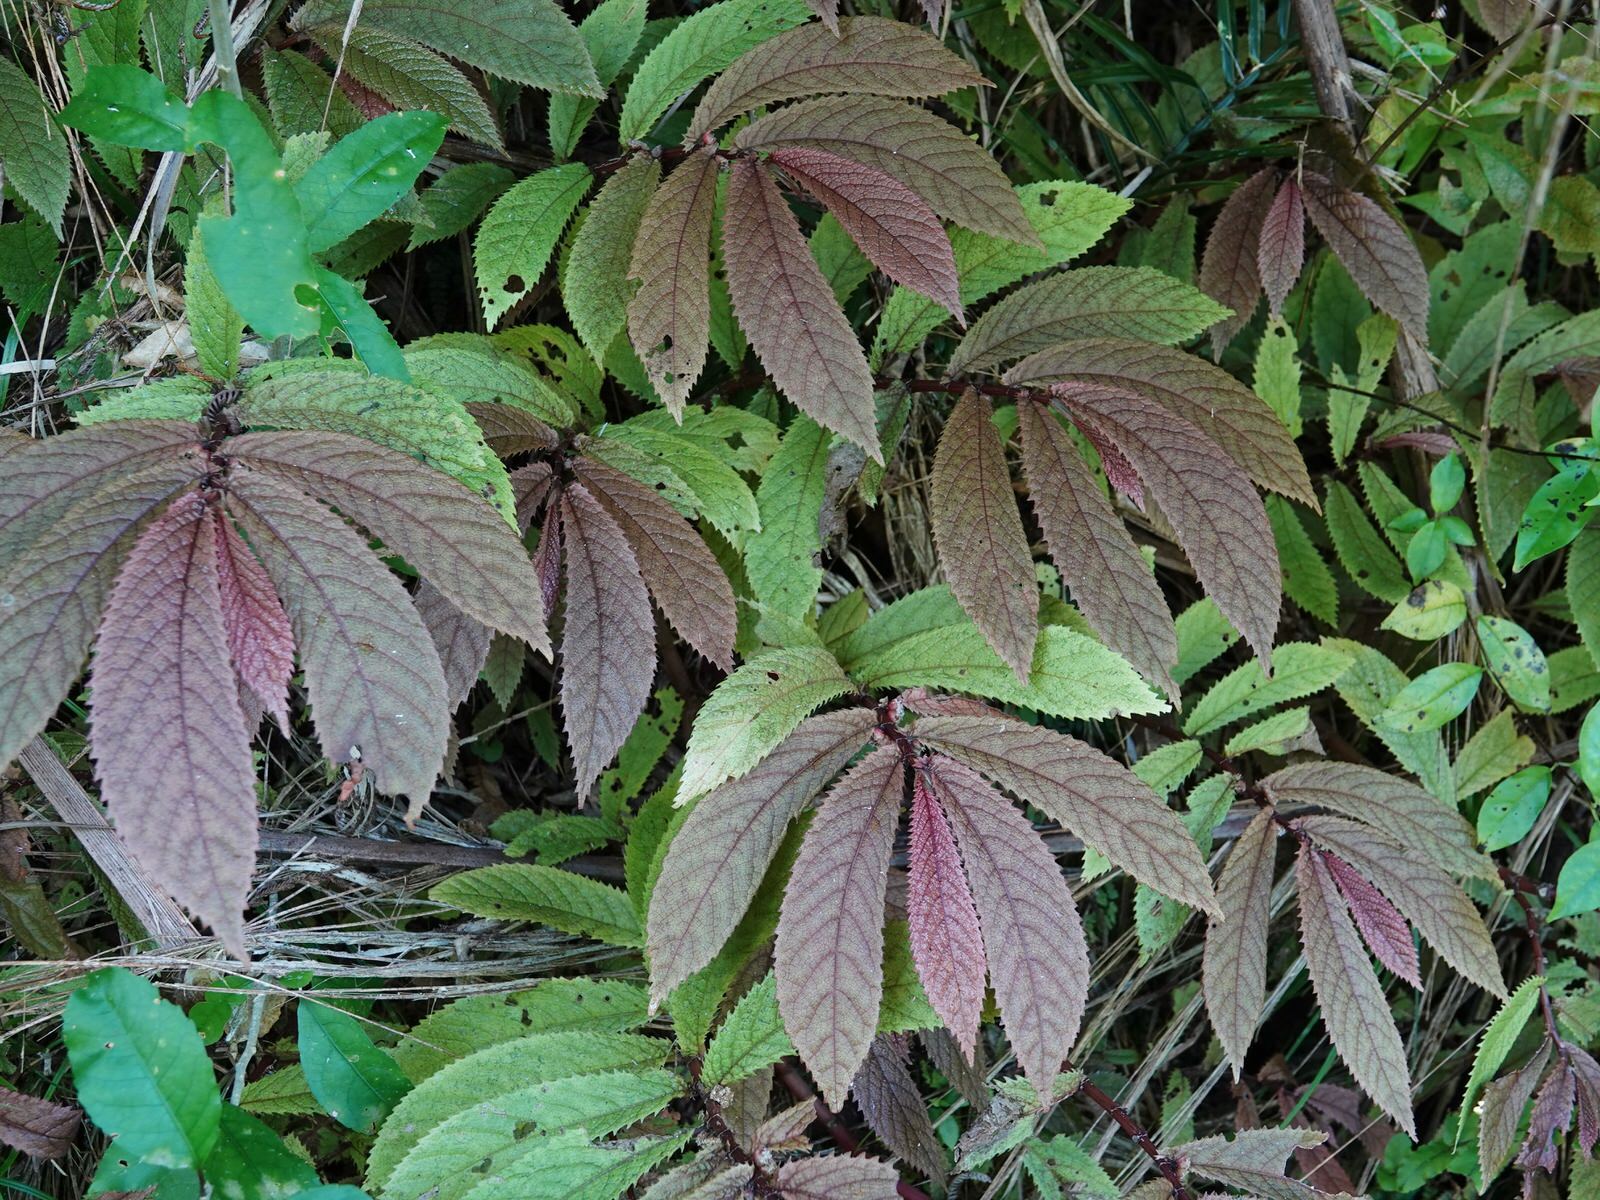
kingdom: Plantae
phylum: Tracheophyta
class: Magnoliopsida
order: Rosales
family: Urticaceae
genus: Elatostema
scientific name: Elatostema rugosum
